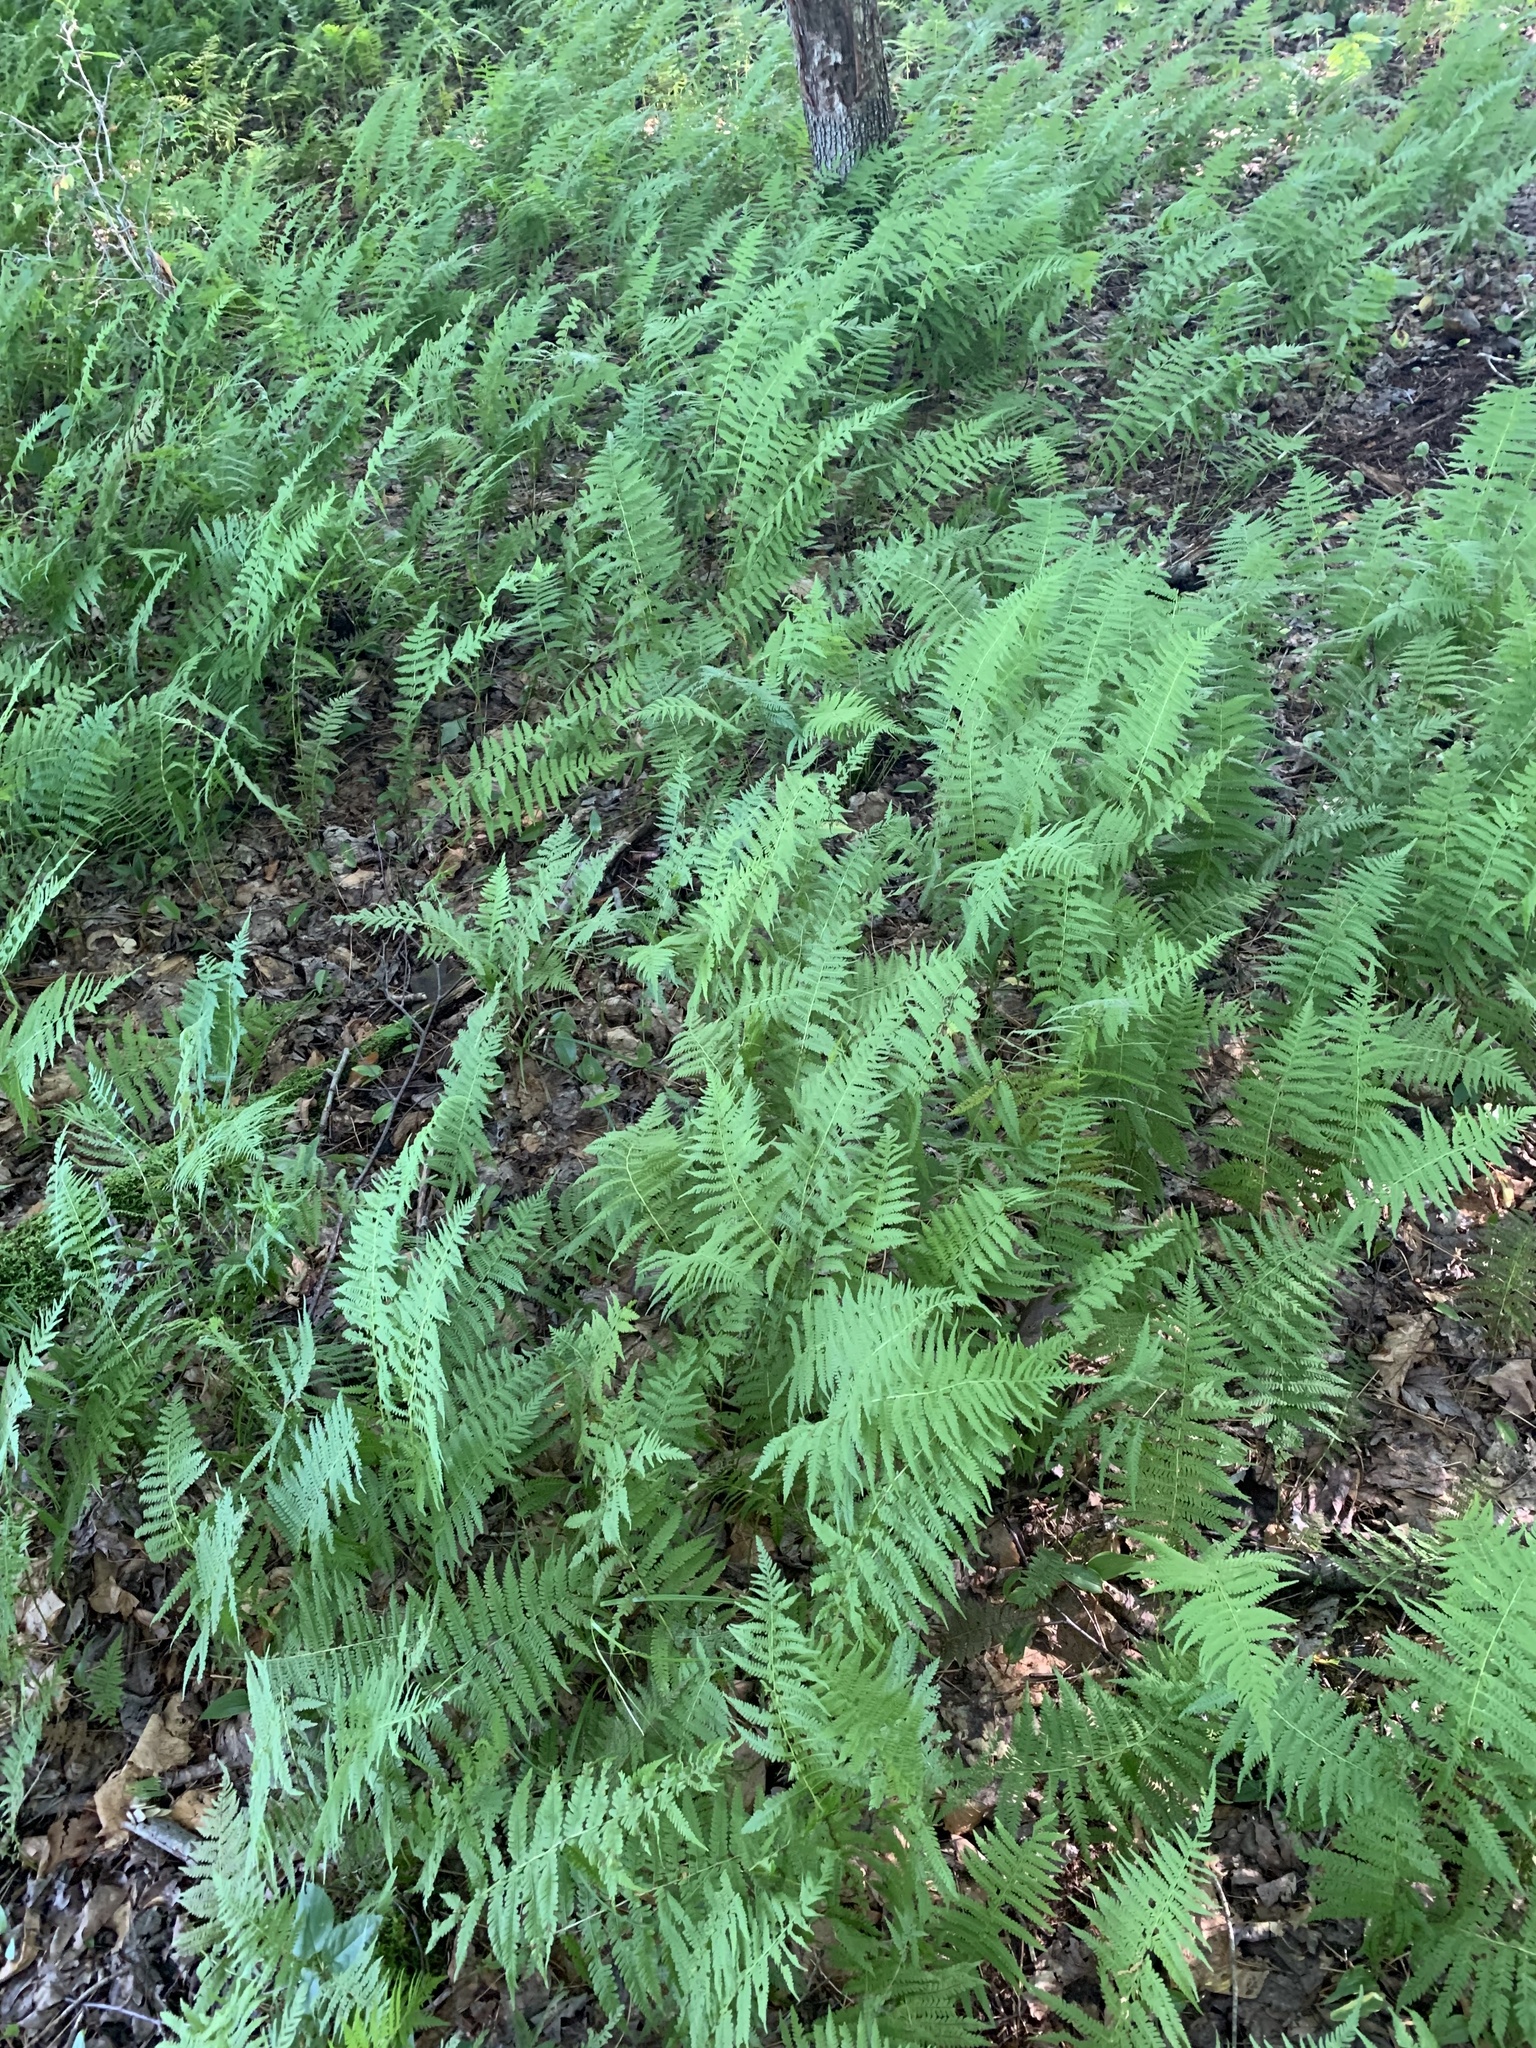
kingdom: Plantae
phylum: Tracheophyta
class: Polypodiopsida
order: Polypodiales
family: Thelypteridaceae
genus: Amauropelta
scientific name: Amauropelta noveboracensis
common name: New york fern
